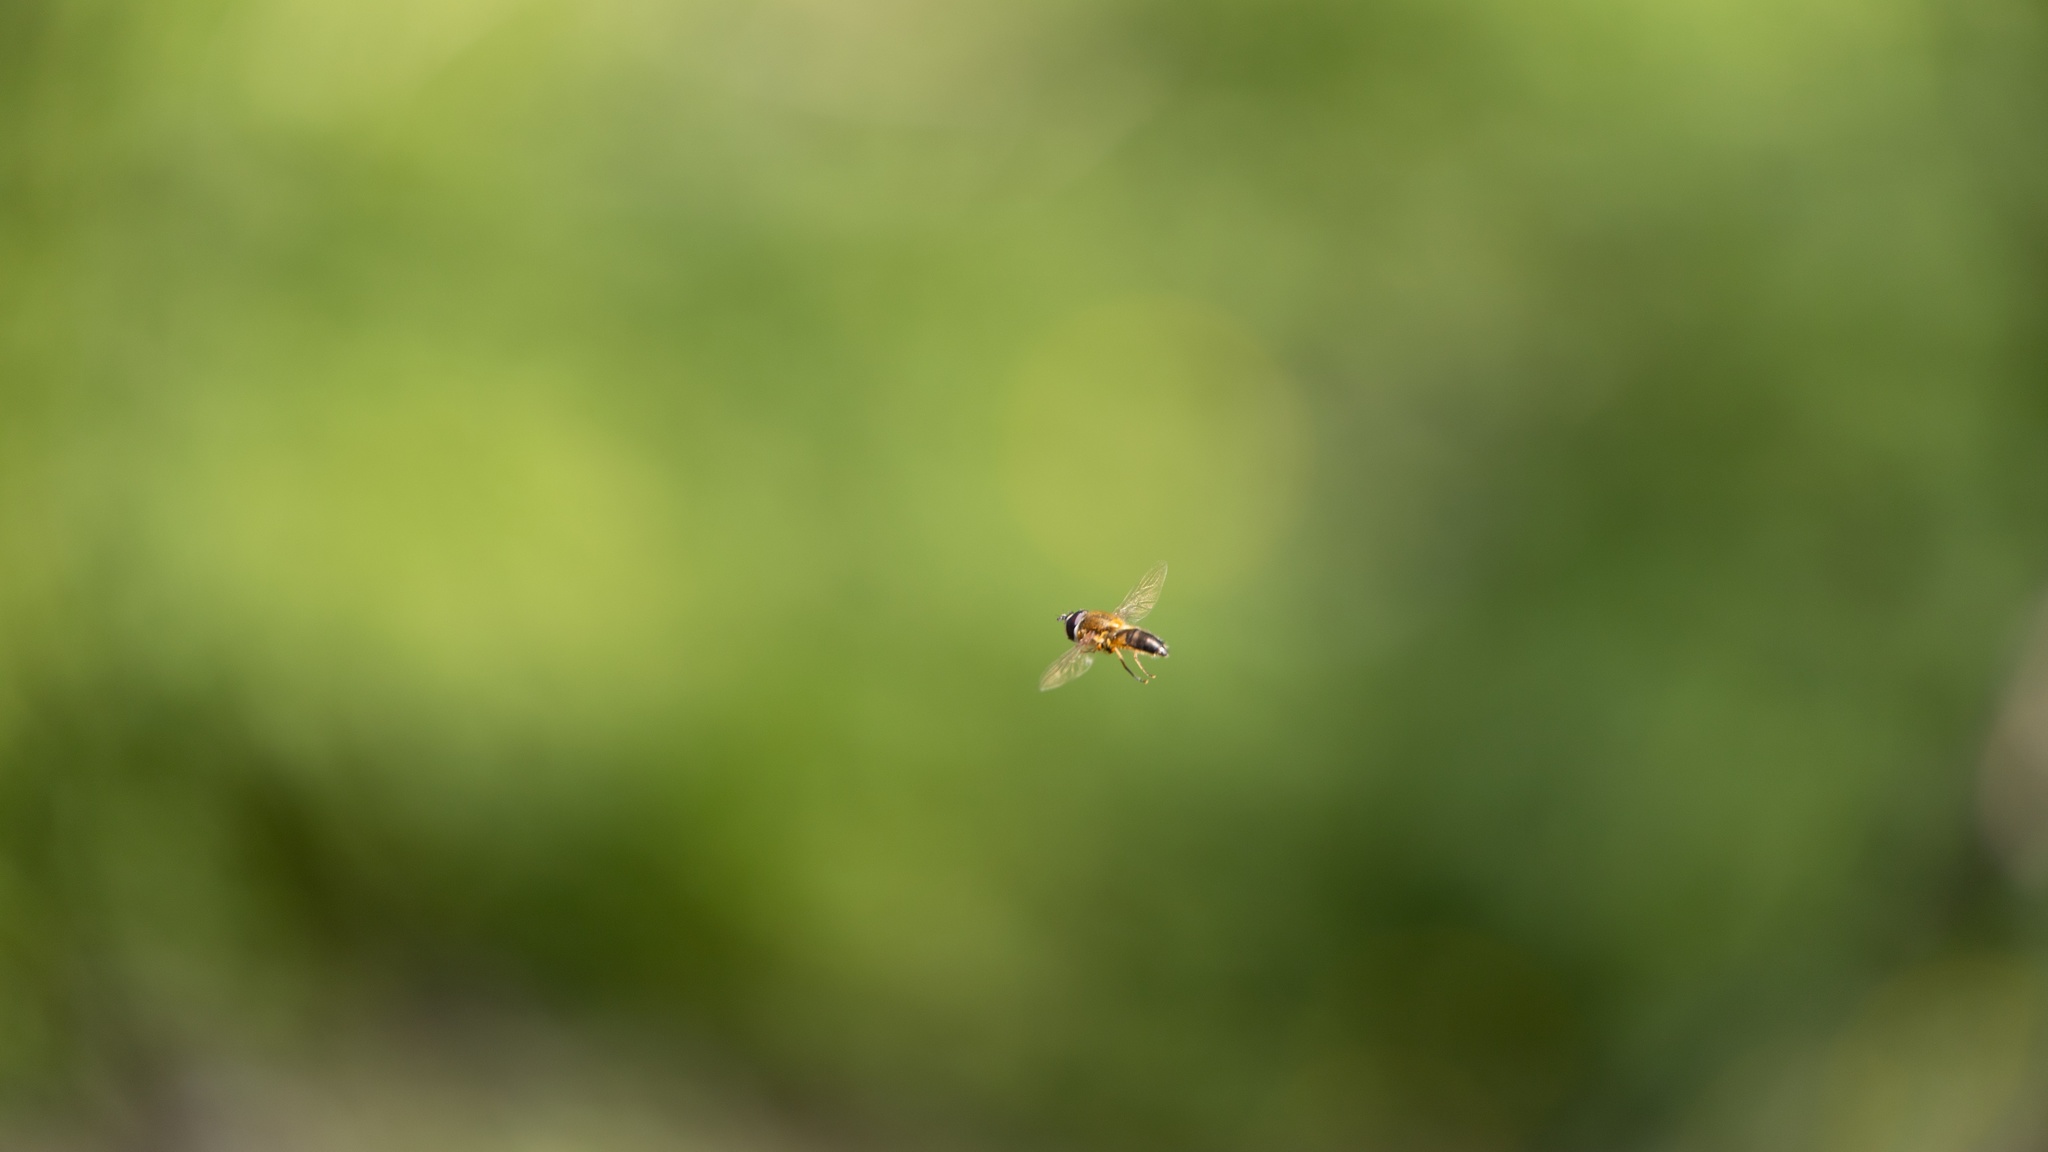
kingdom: Animalia
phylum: Arthropoda
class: Insecta
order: Diptera
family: Syrphidae
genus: Epistrophe
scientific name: Epistrophe eligans
